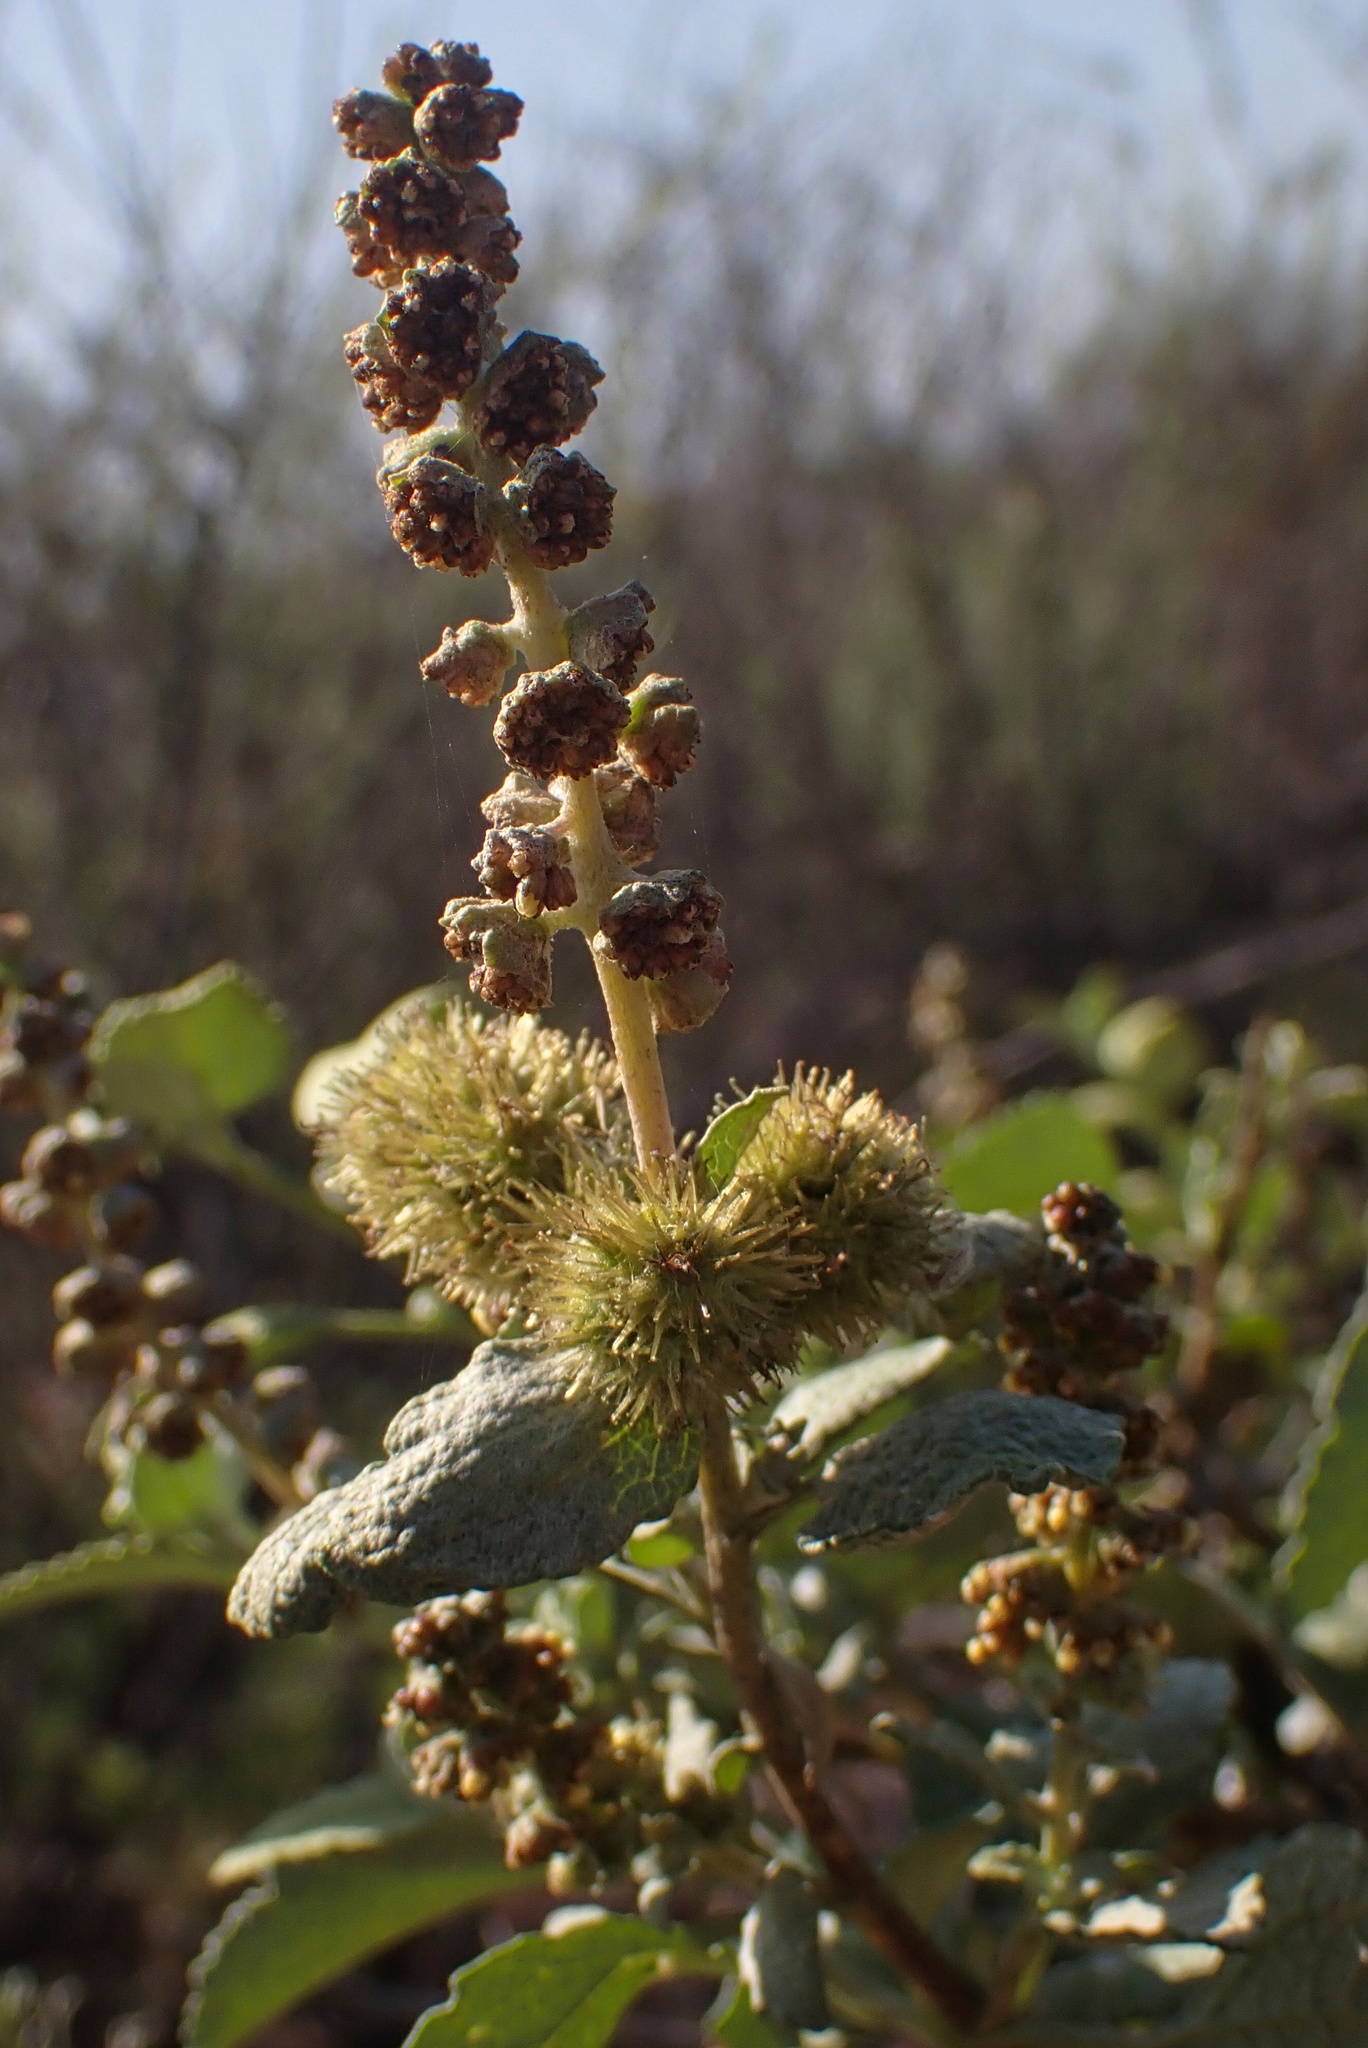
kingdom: Plantae
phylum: Tracheophyta
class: Magnoliopsida
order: Asterales
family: Asteraceae
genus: Ambrosia
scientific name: Ambrosia chenopodiifolia
